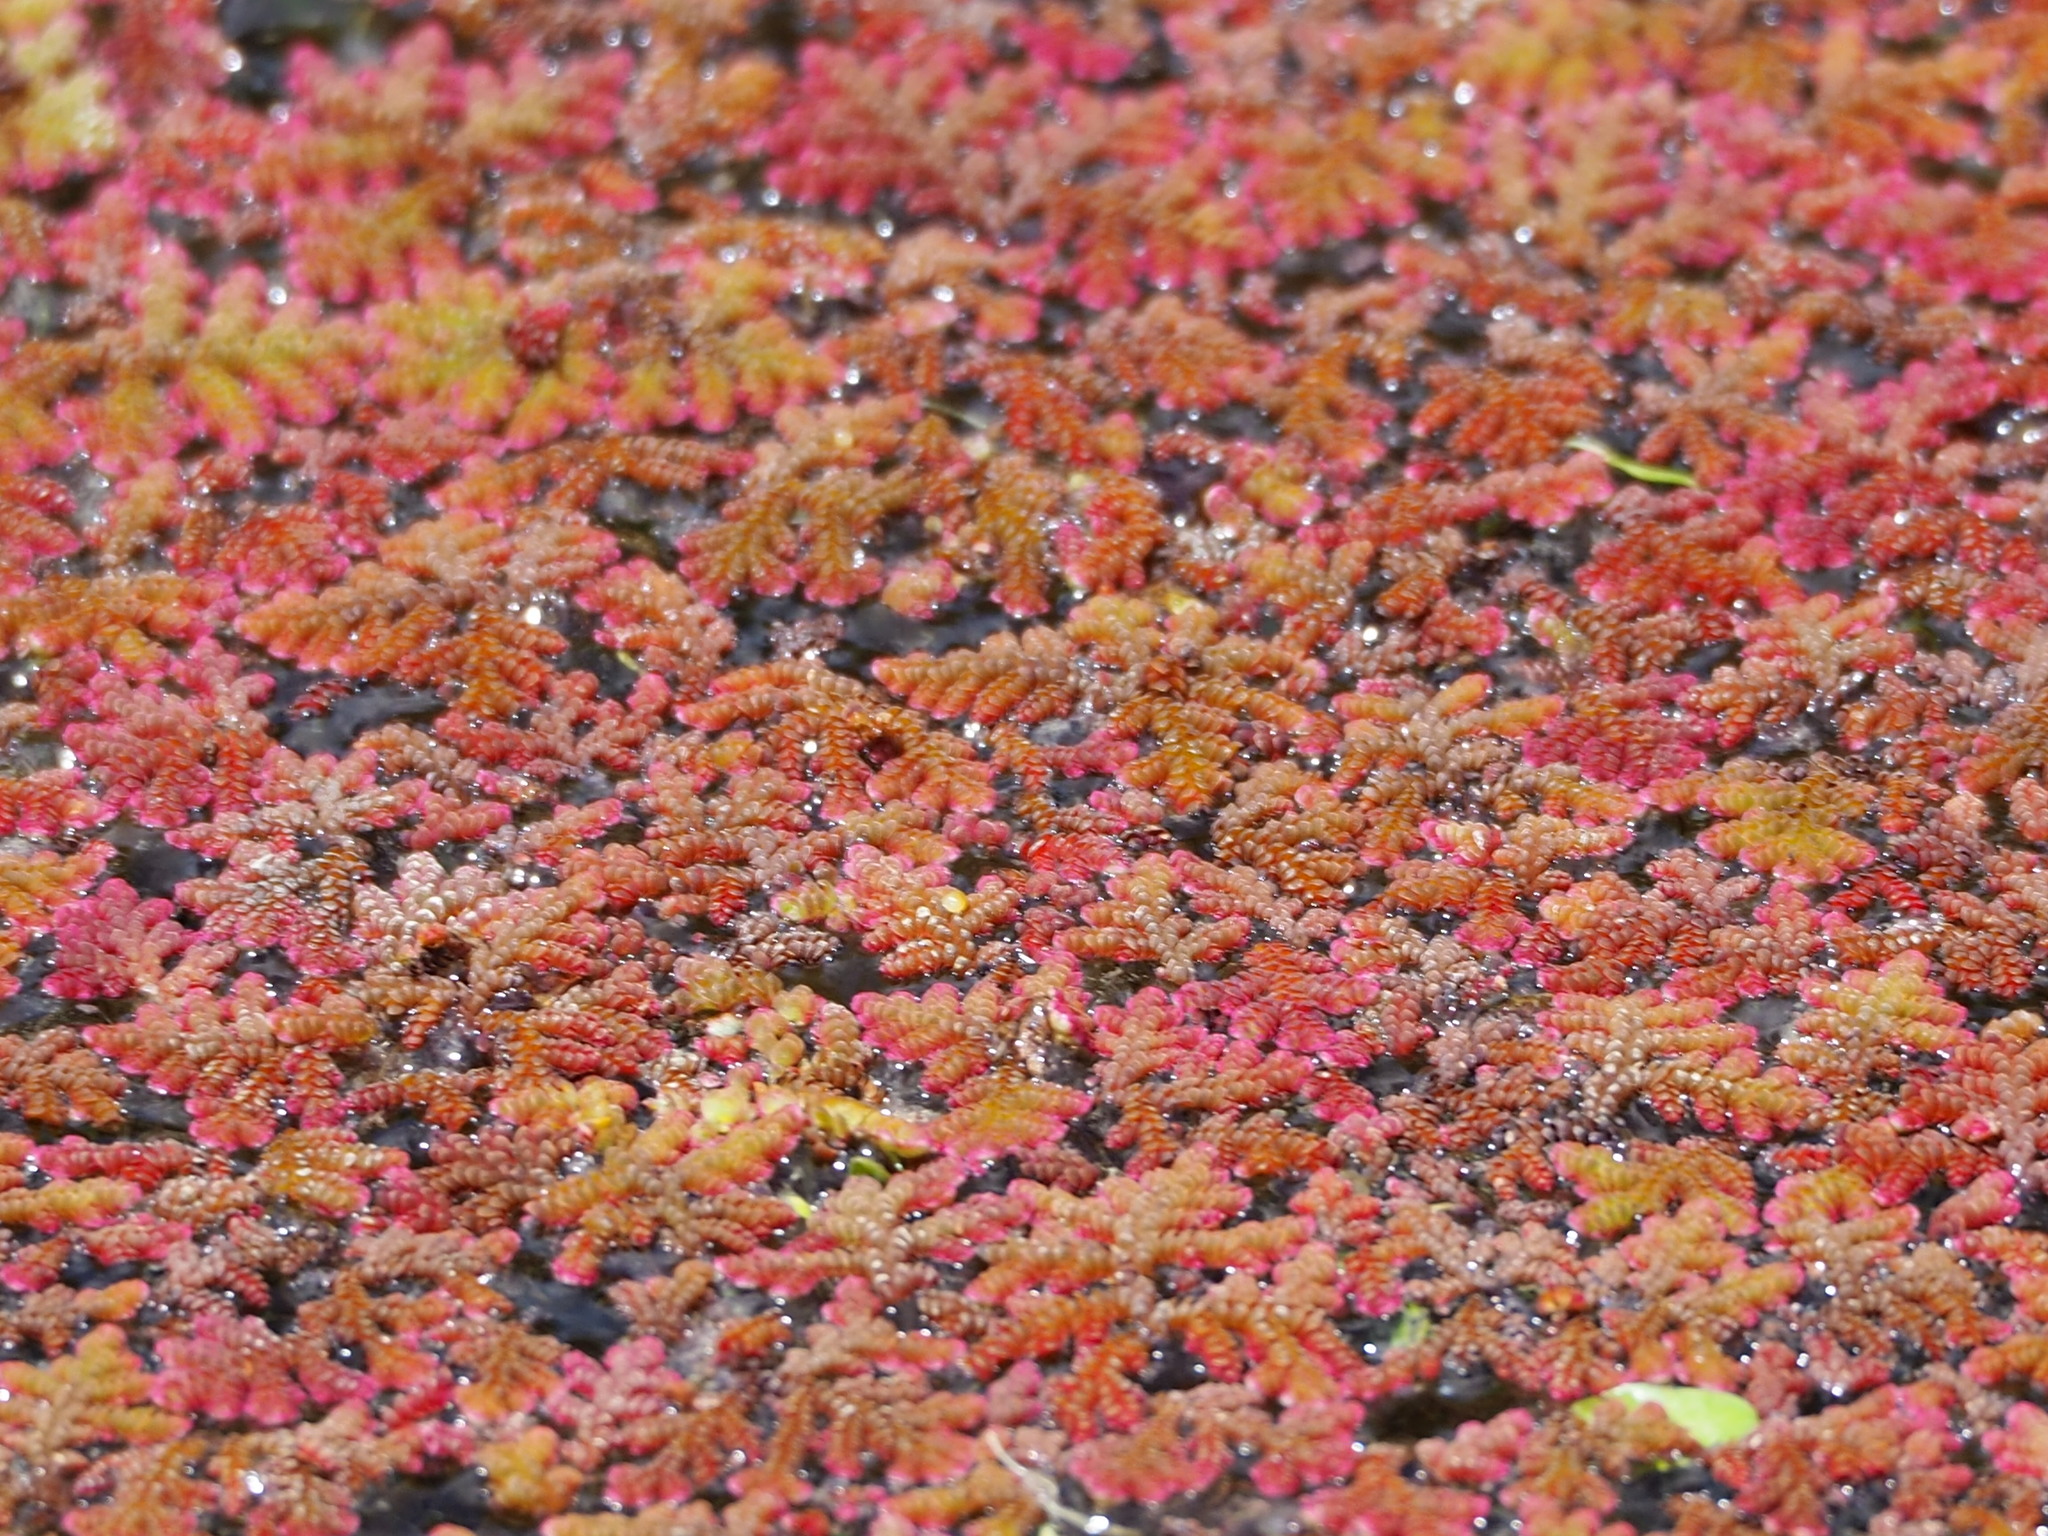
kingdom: Plantae
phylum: Tracheophyta
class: Polypodiopsida
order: Salviniales
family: Salviniaceae
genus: Azolla
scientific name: Azolla filiculoides
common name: Water fern
